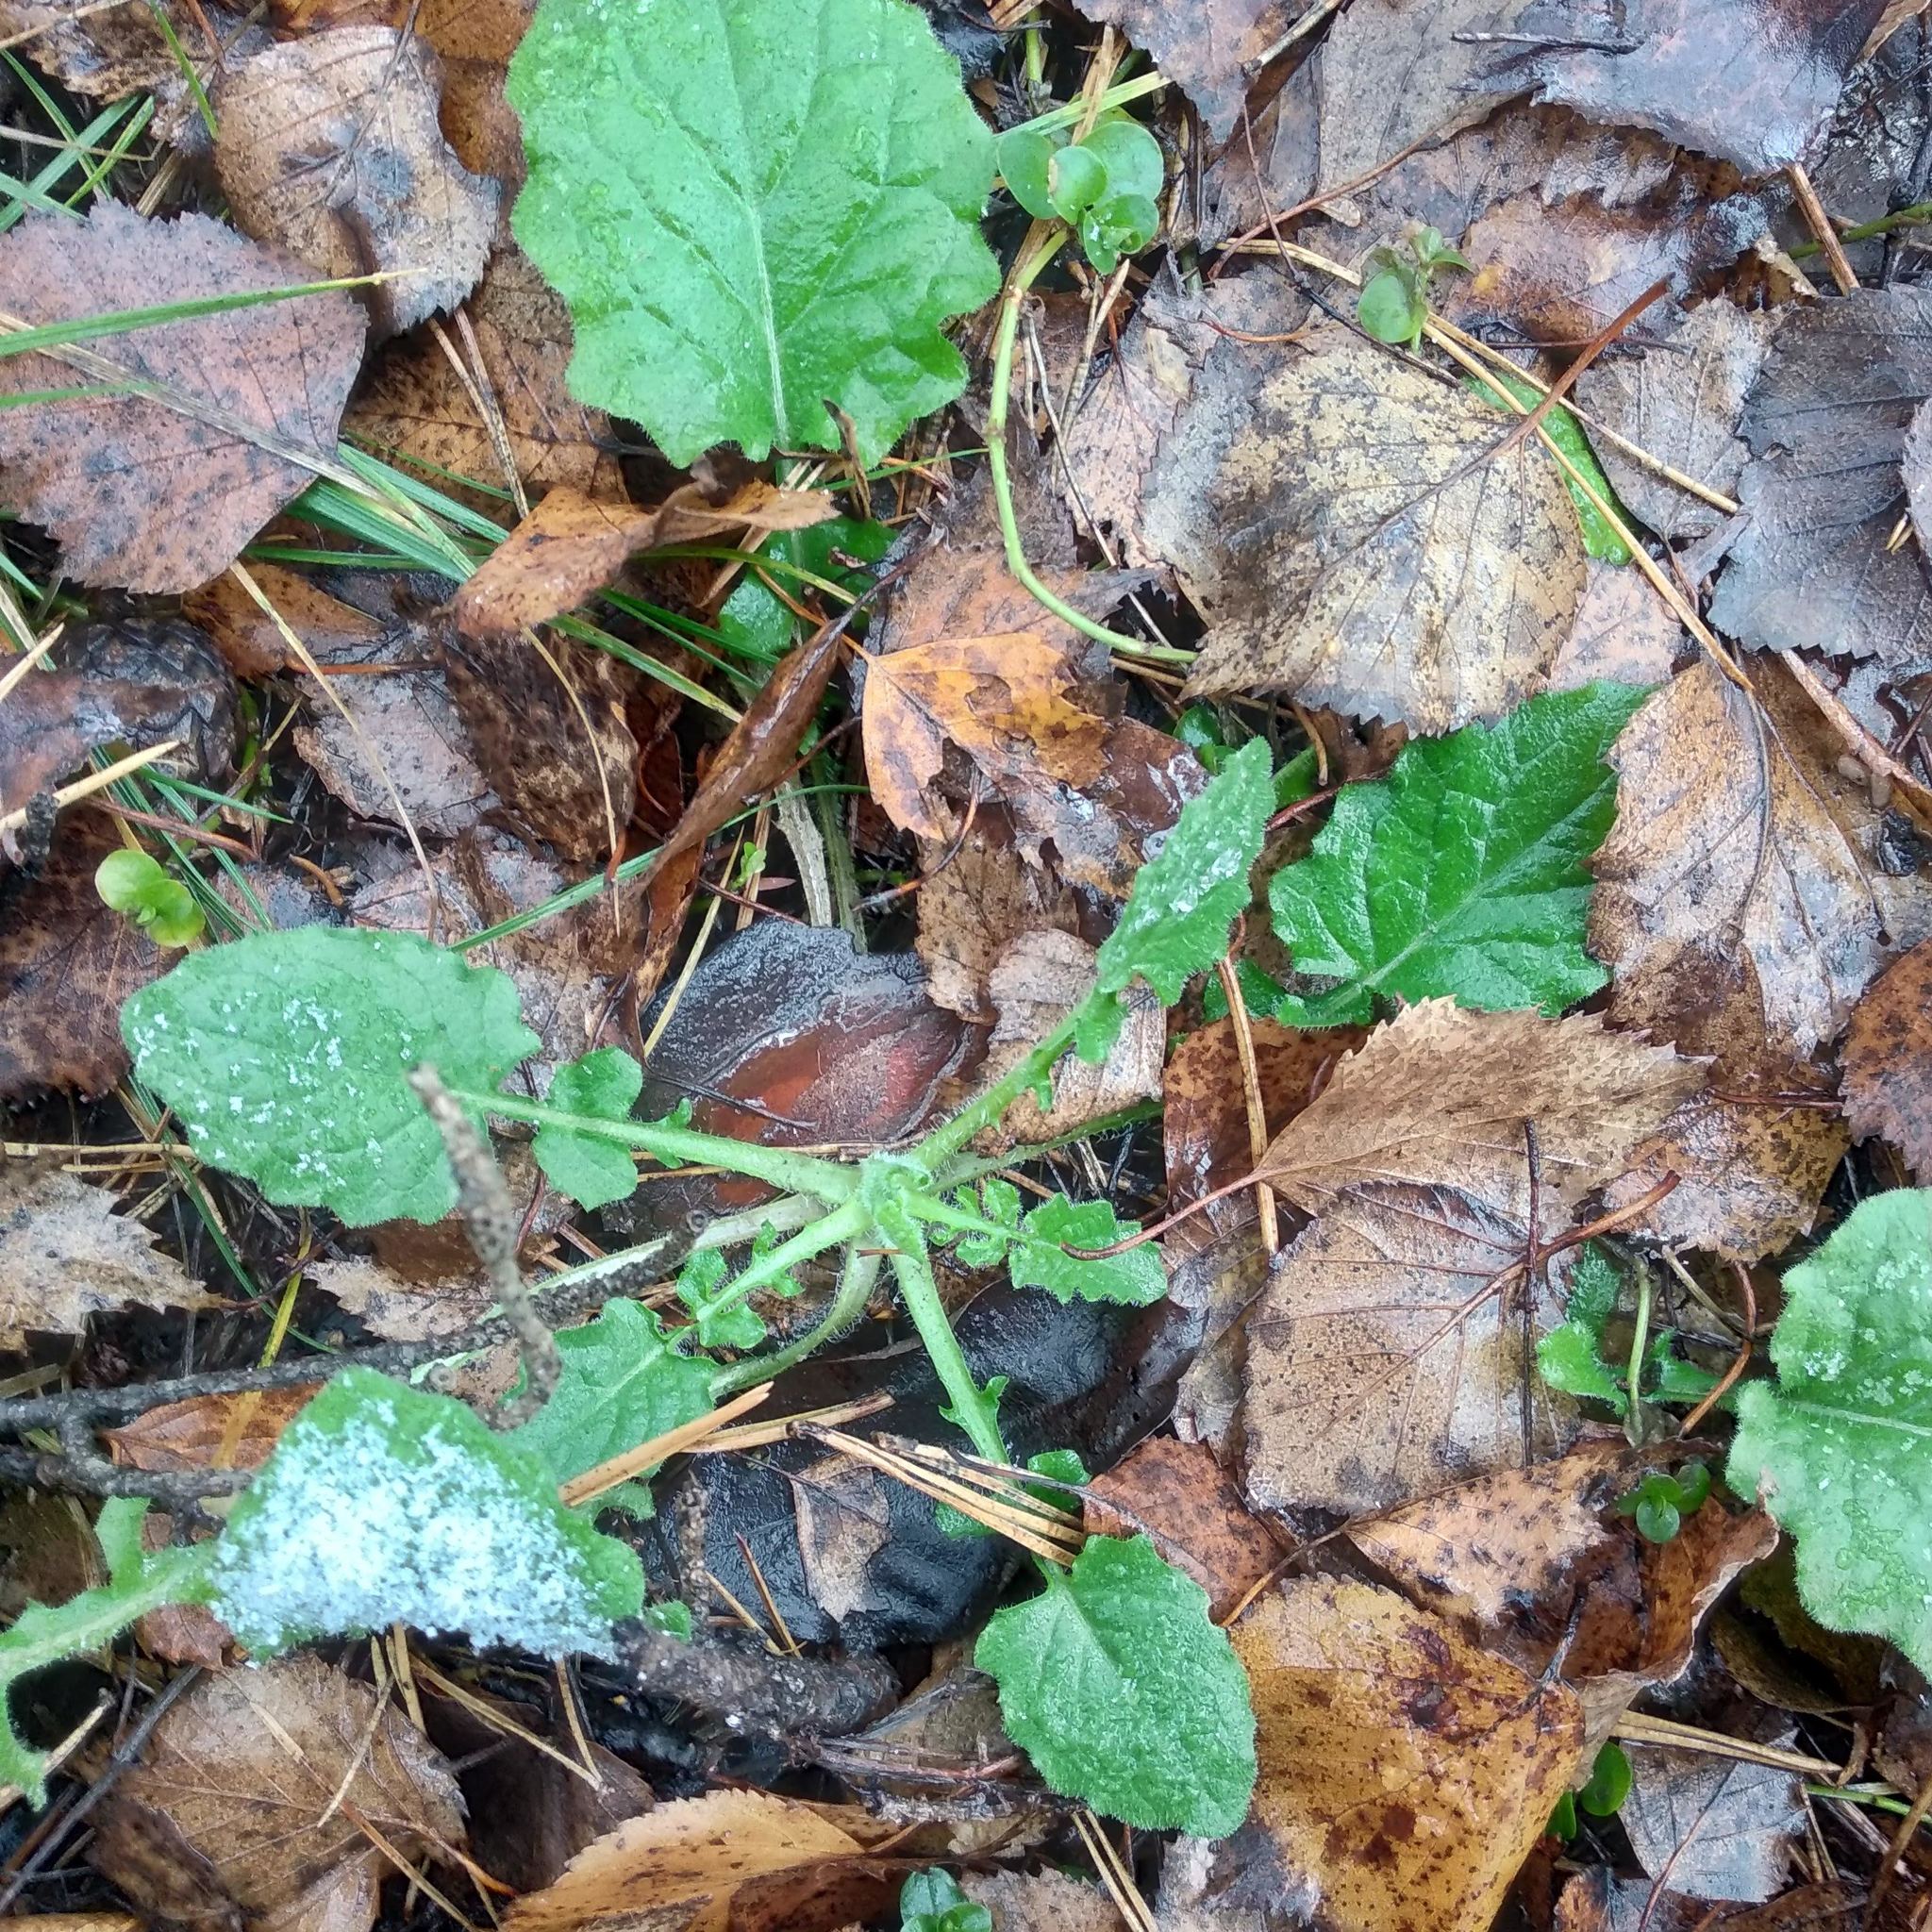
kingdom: Plantae
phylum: Tracheophyta
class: Magnoliopsida
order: Asterales
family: Asteraceae
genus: Lapsana
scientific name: Lapsana communis
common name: Nipplewort
